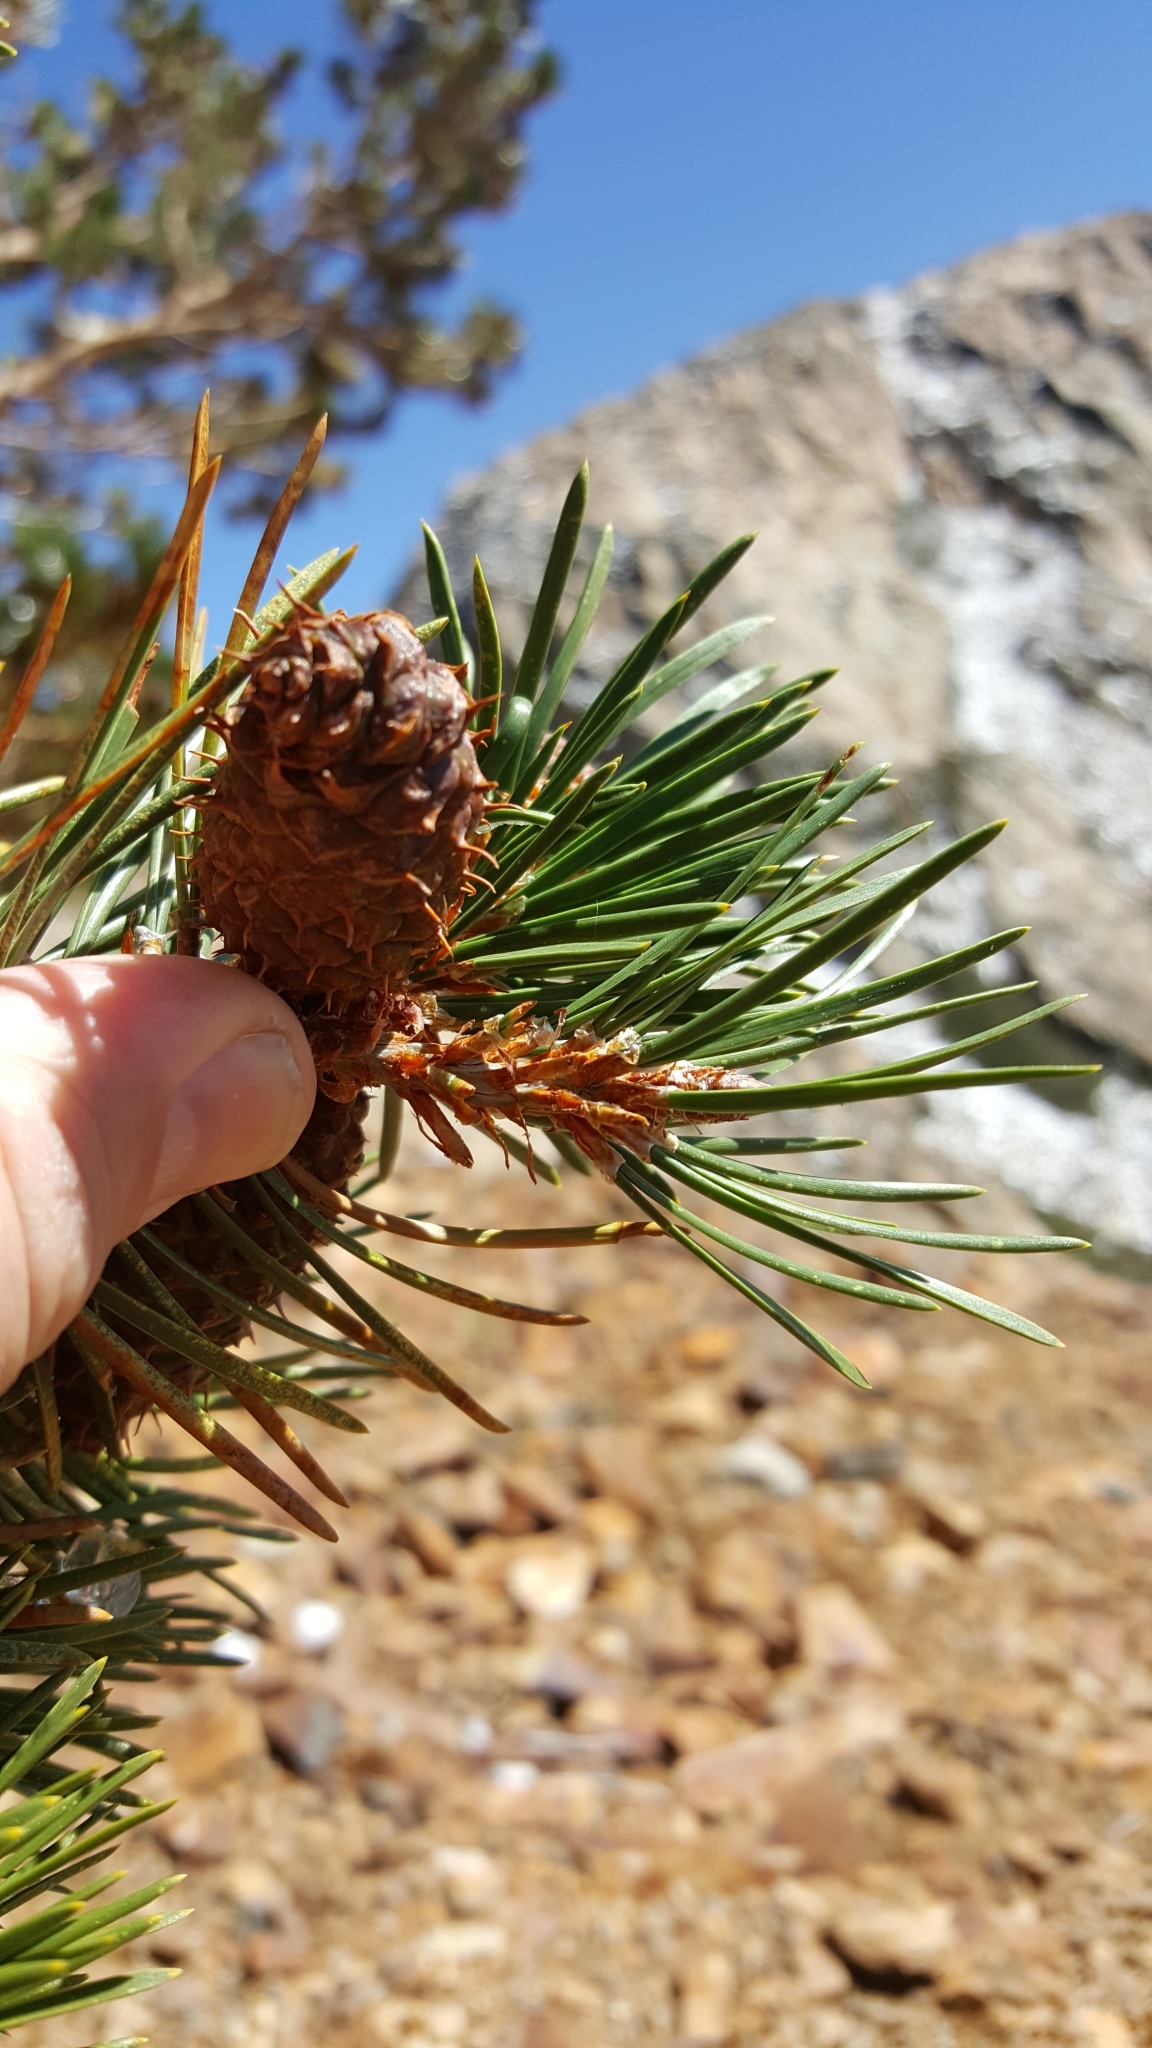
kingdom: Plantae
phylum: Tracheophyta
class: Pinopsida
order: Pinales
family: Pinaceae
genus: Pinus
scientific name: Pinus contorta
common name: Lodgepole pine
